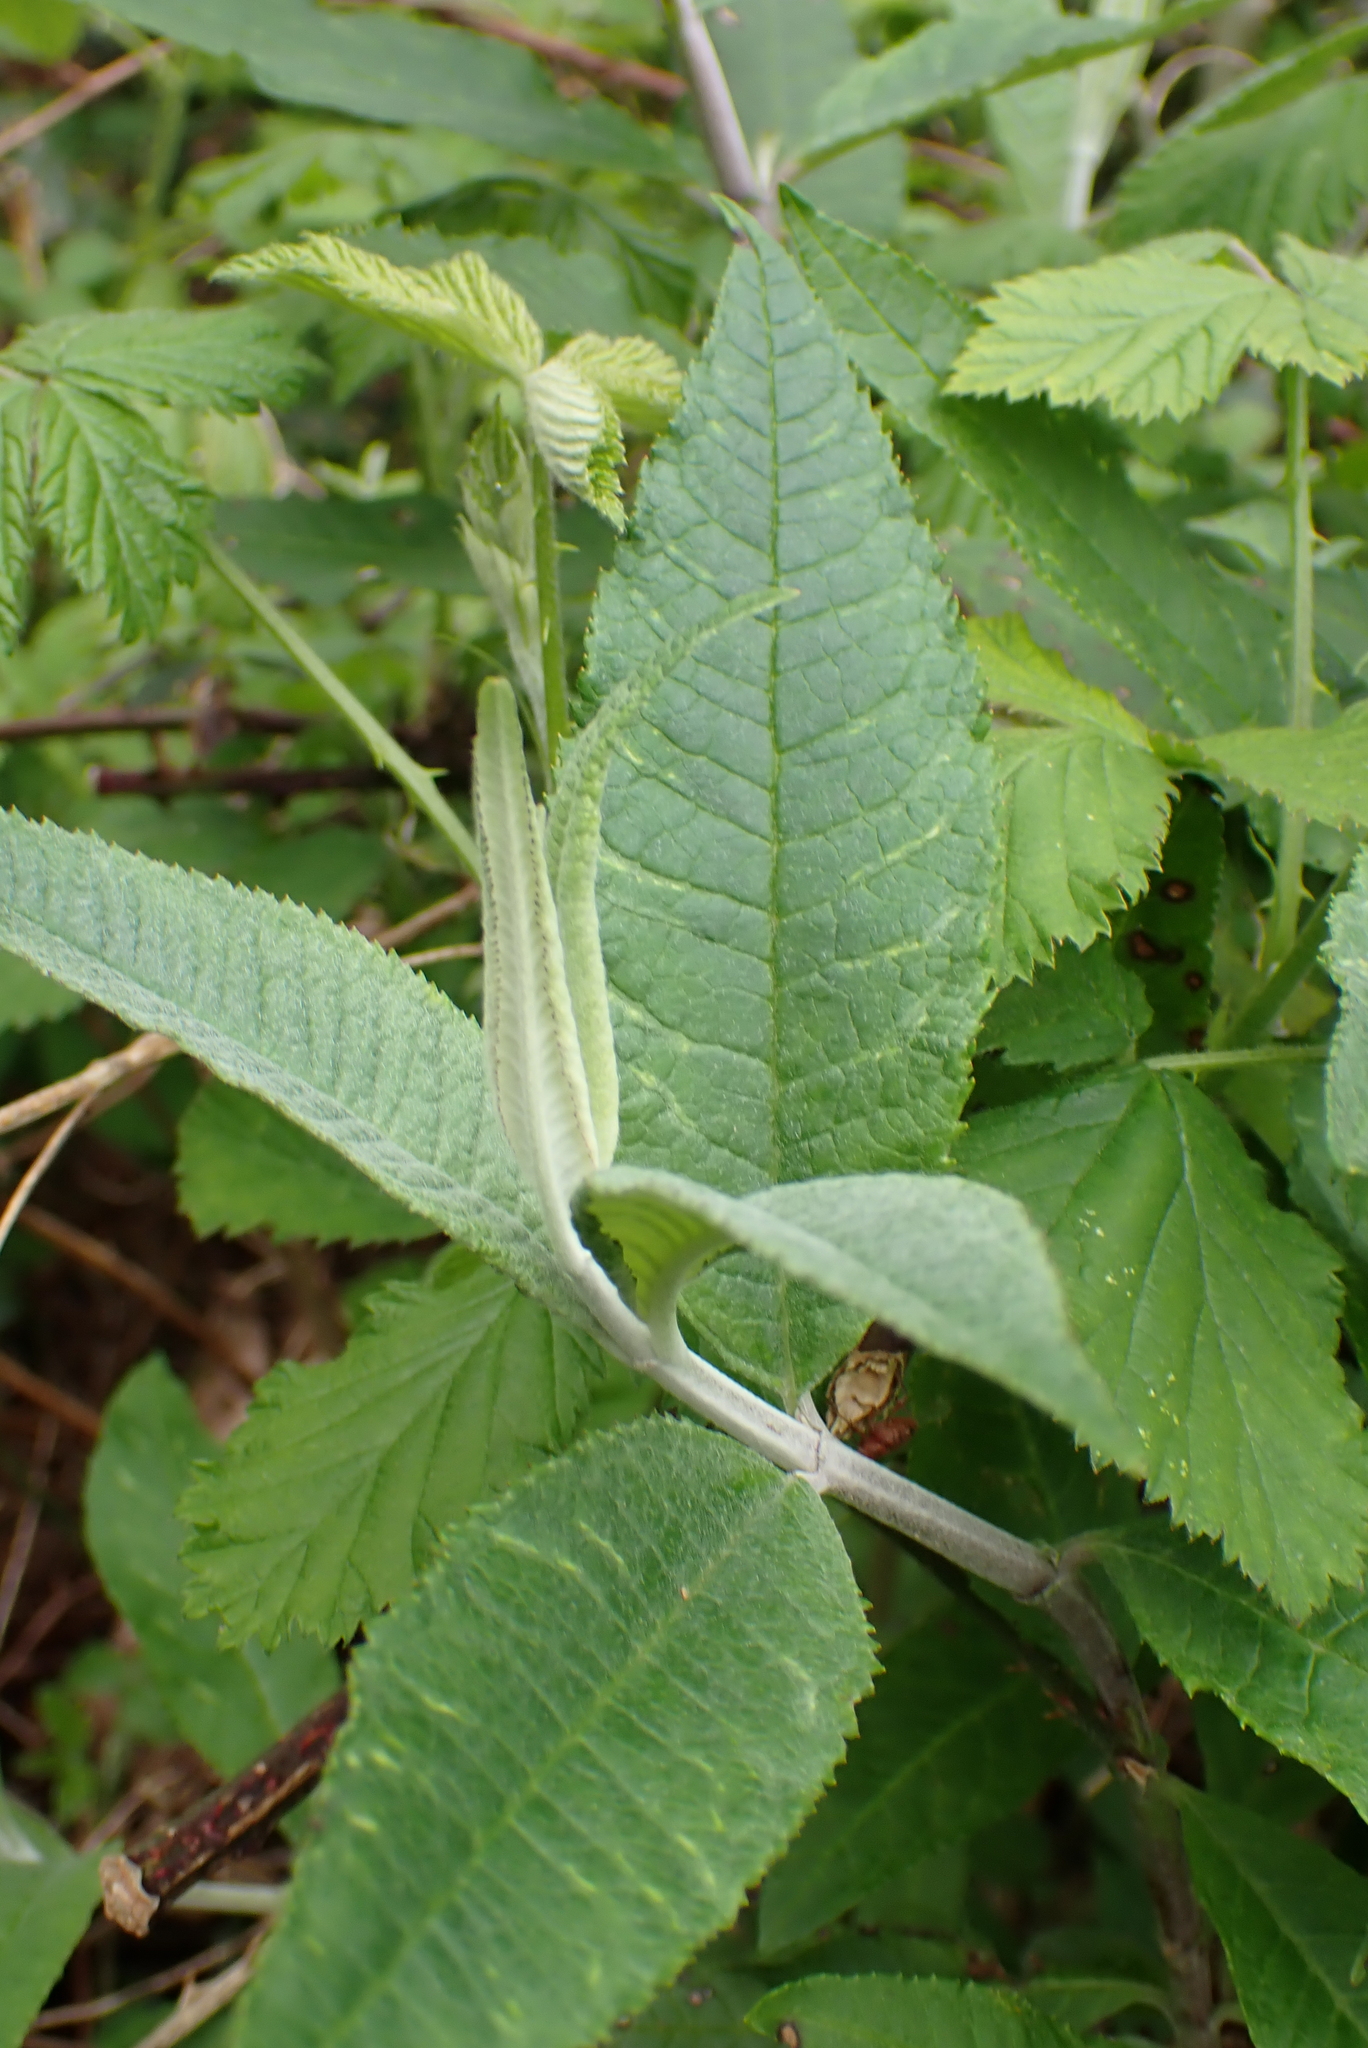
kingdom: Plantae
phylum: Tracheophyta
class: Magnoliopsida
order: Lamiales
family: Scrophulariaceae
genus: Buddleja
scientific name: Buddleja davidii
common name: Butterfly-bush
